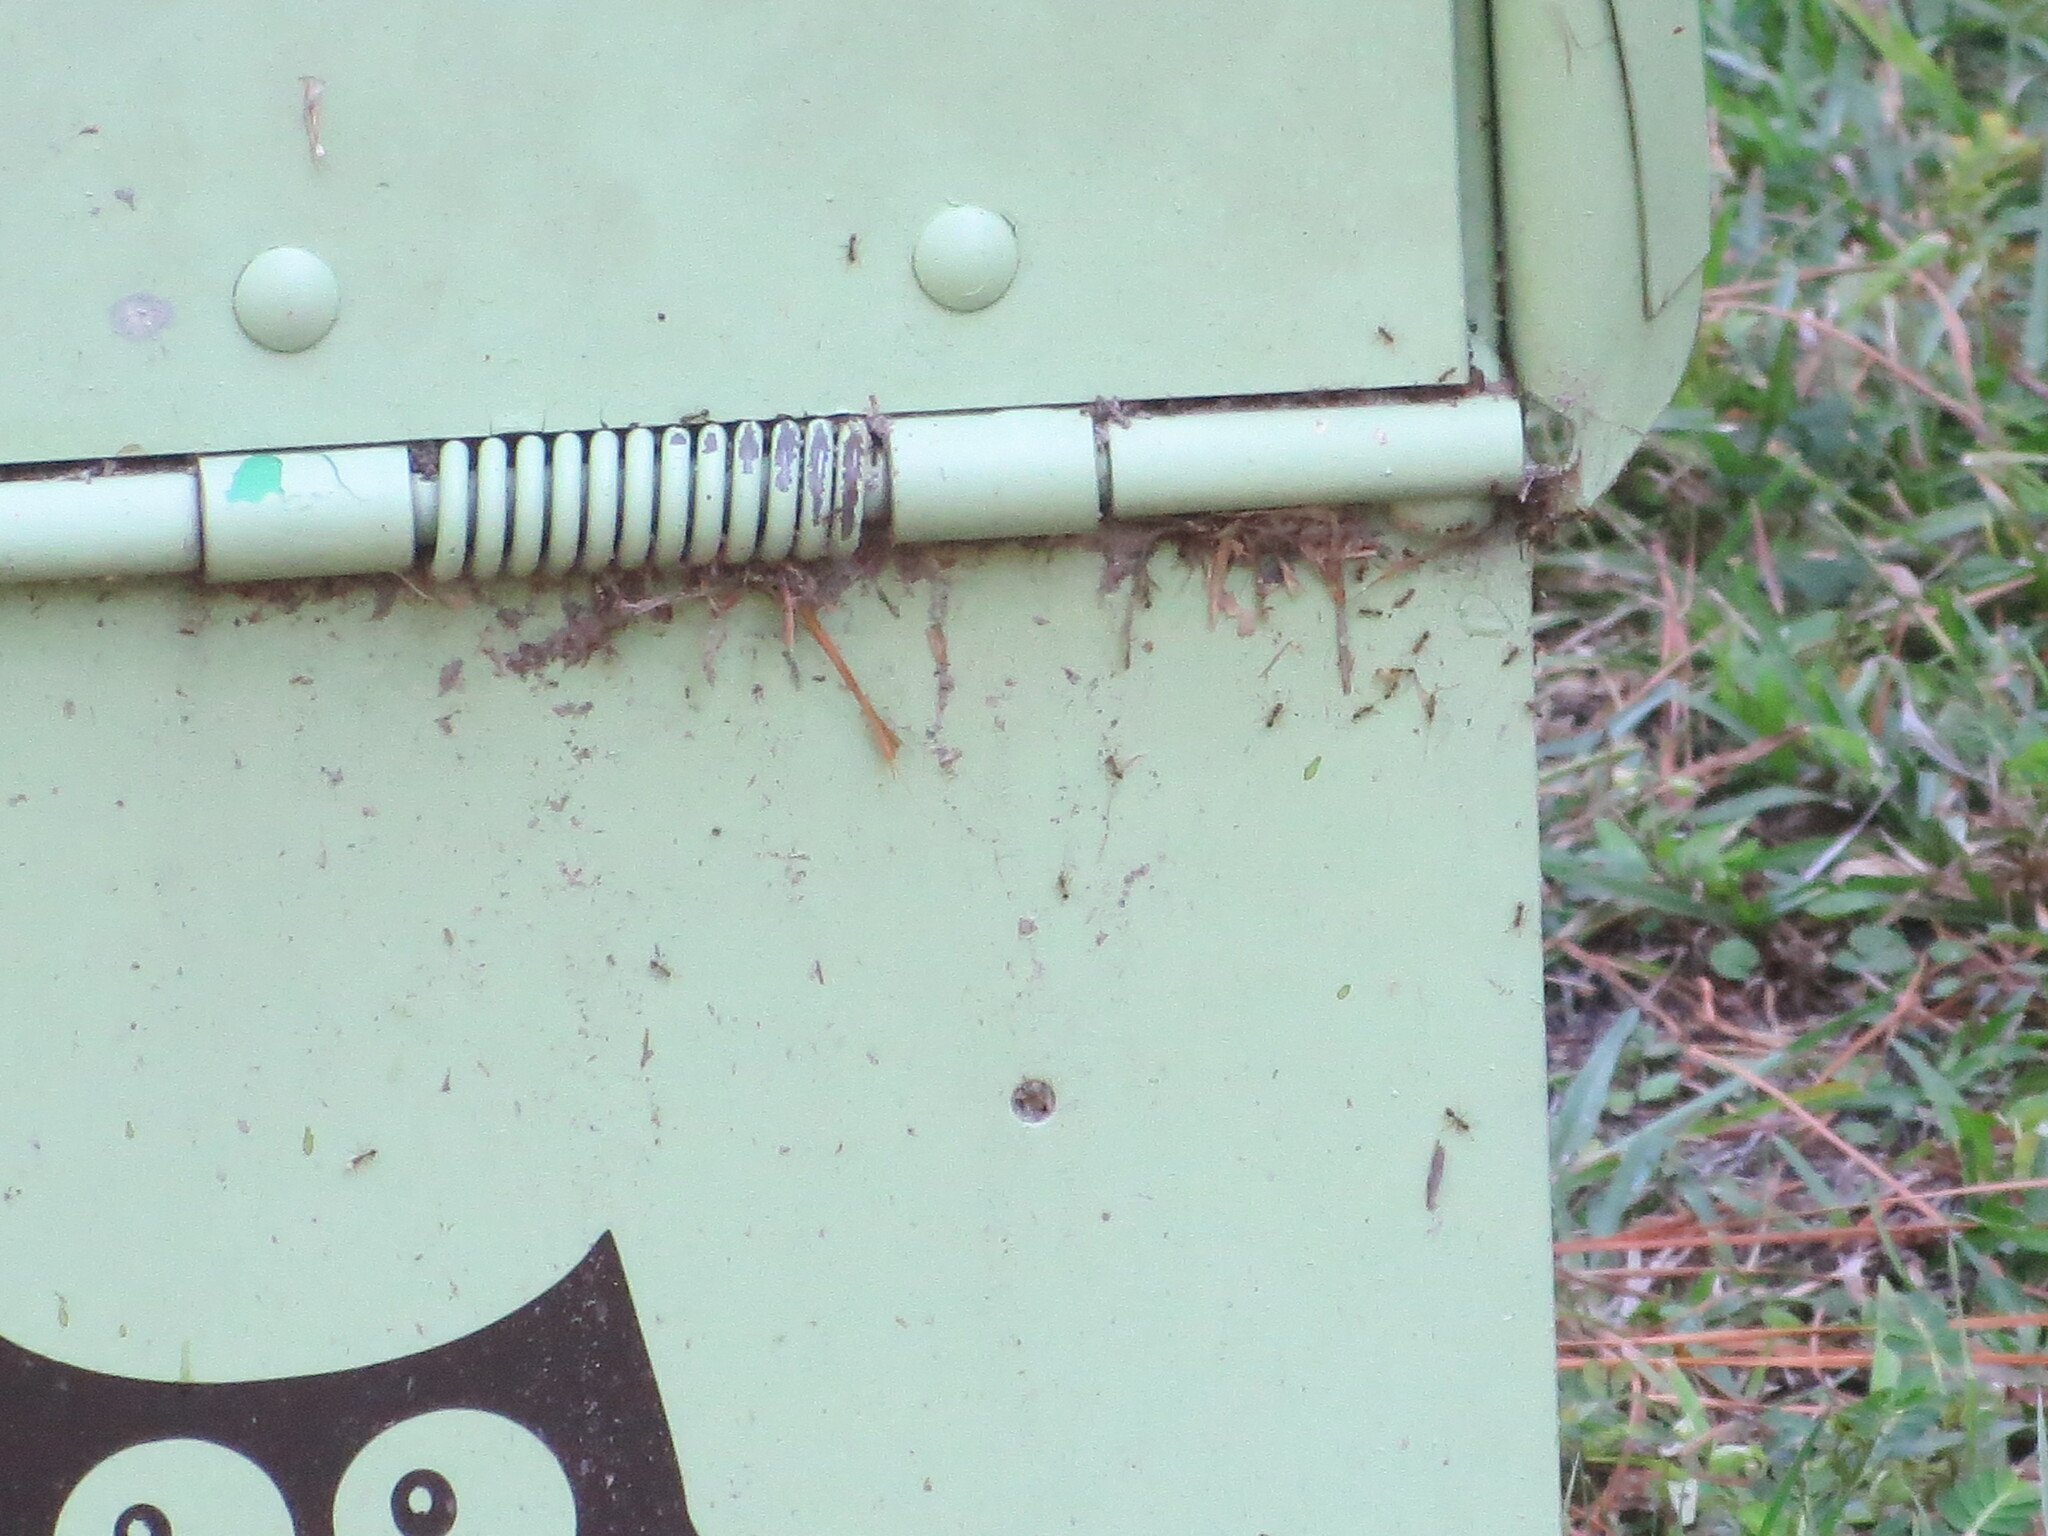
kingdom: Animalia
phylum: Arthropoda
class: Insecta
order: Hymenoptera
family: Formicidae
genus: Solenopsis
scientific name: Solenopsis invicta
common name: Red imported fire ant
